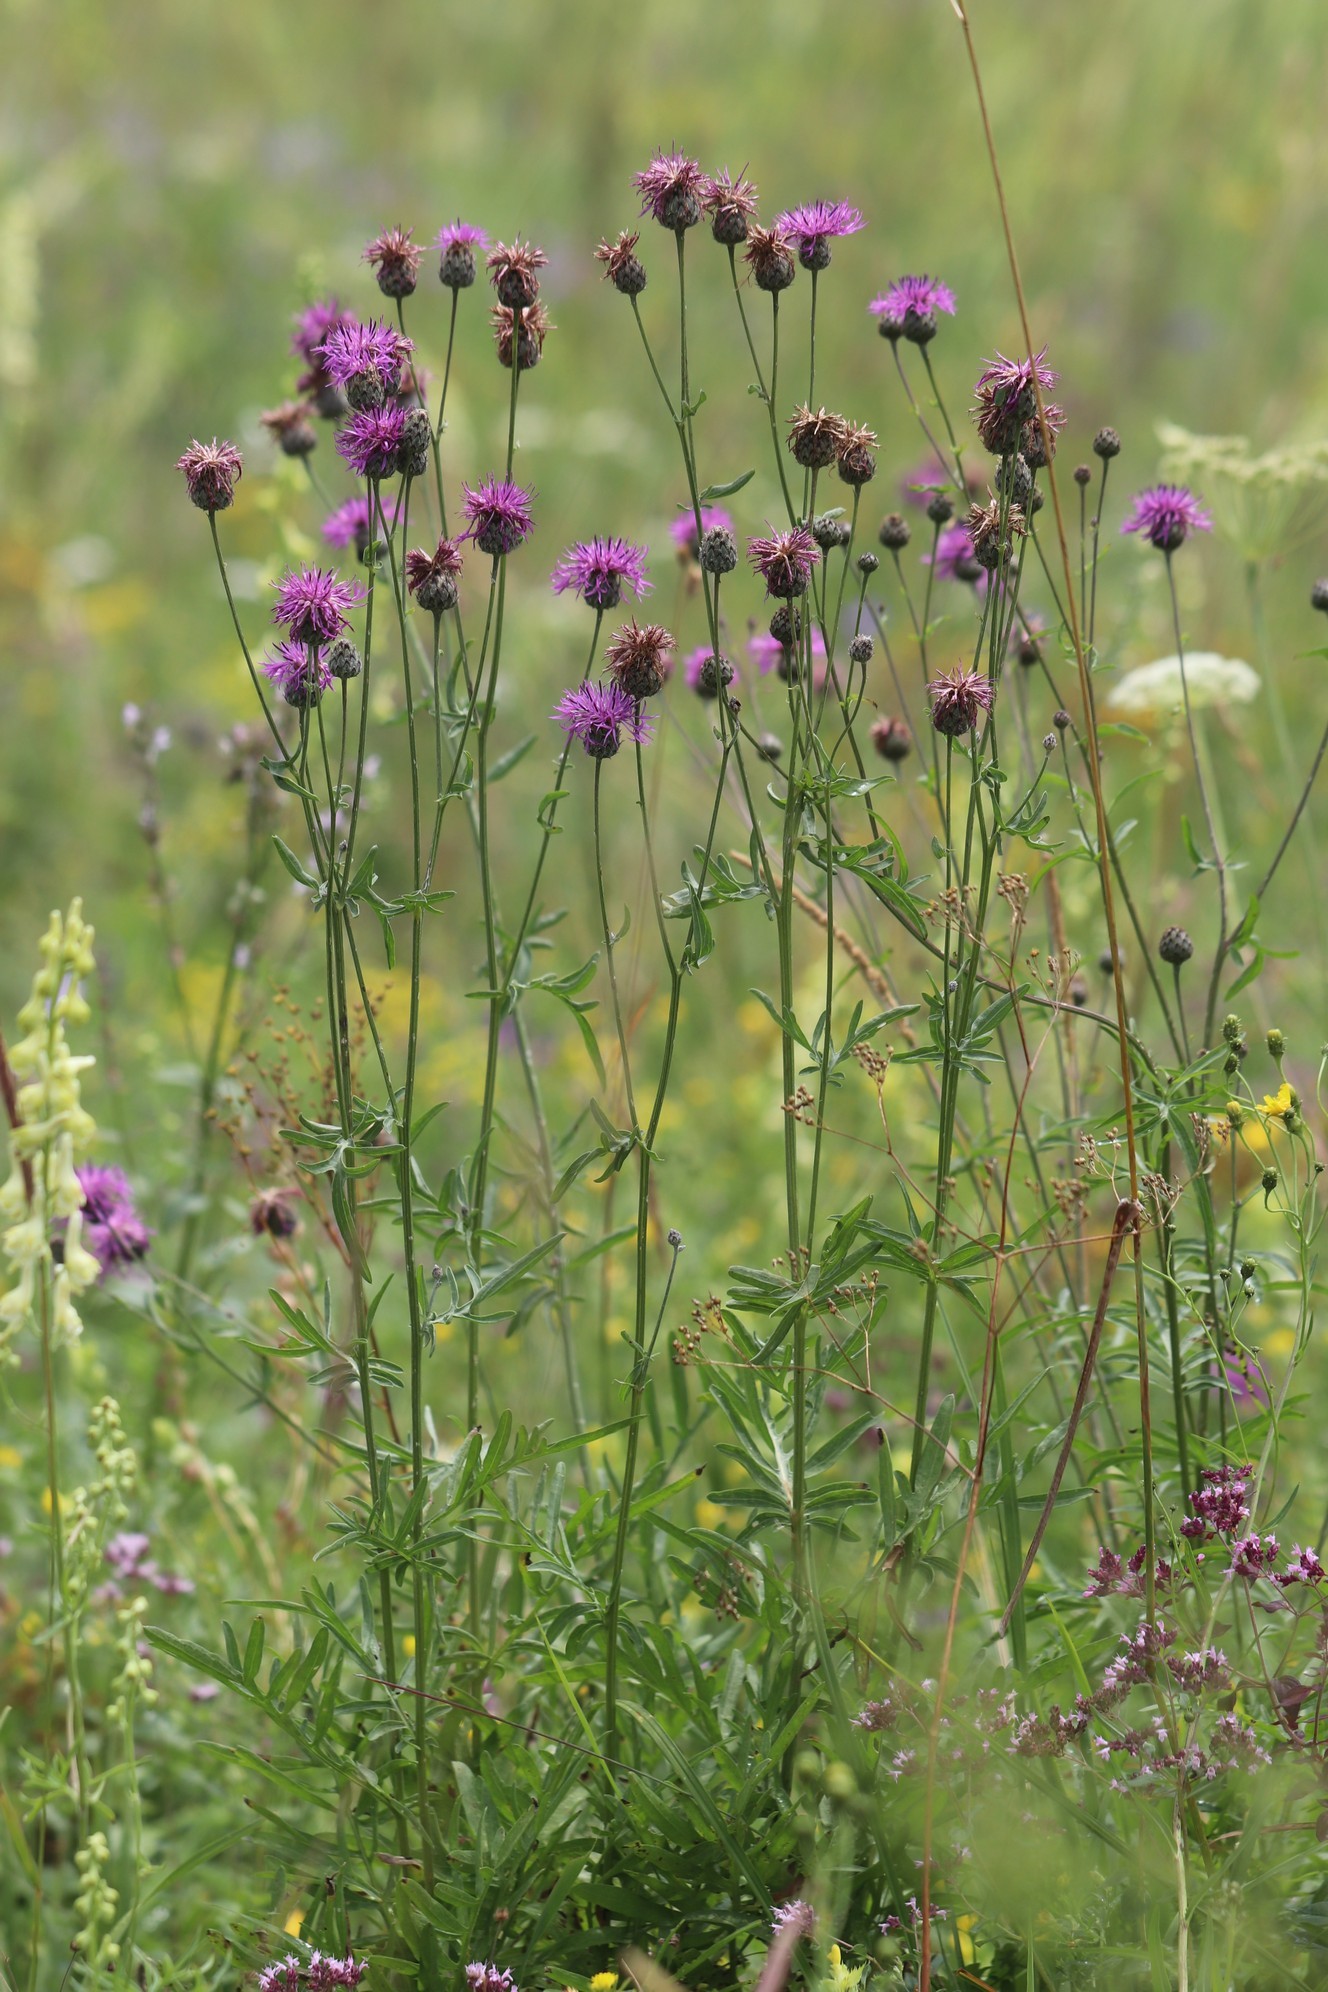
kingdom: Plantae
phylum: Tracheophyta
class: Magnoliopsida
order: Asterales
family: Asteraceae
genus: Centaurea
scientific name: Centaurea scabiosa
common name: Greater knapweed
